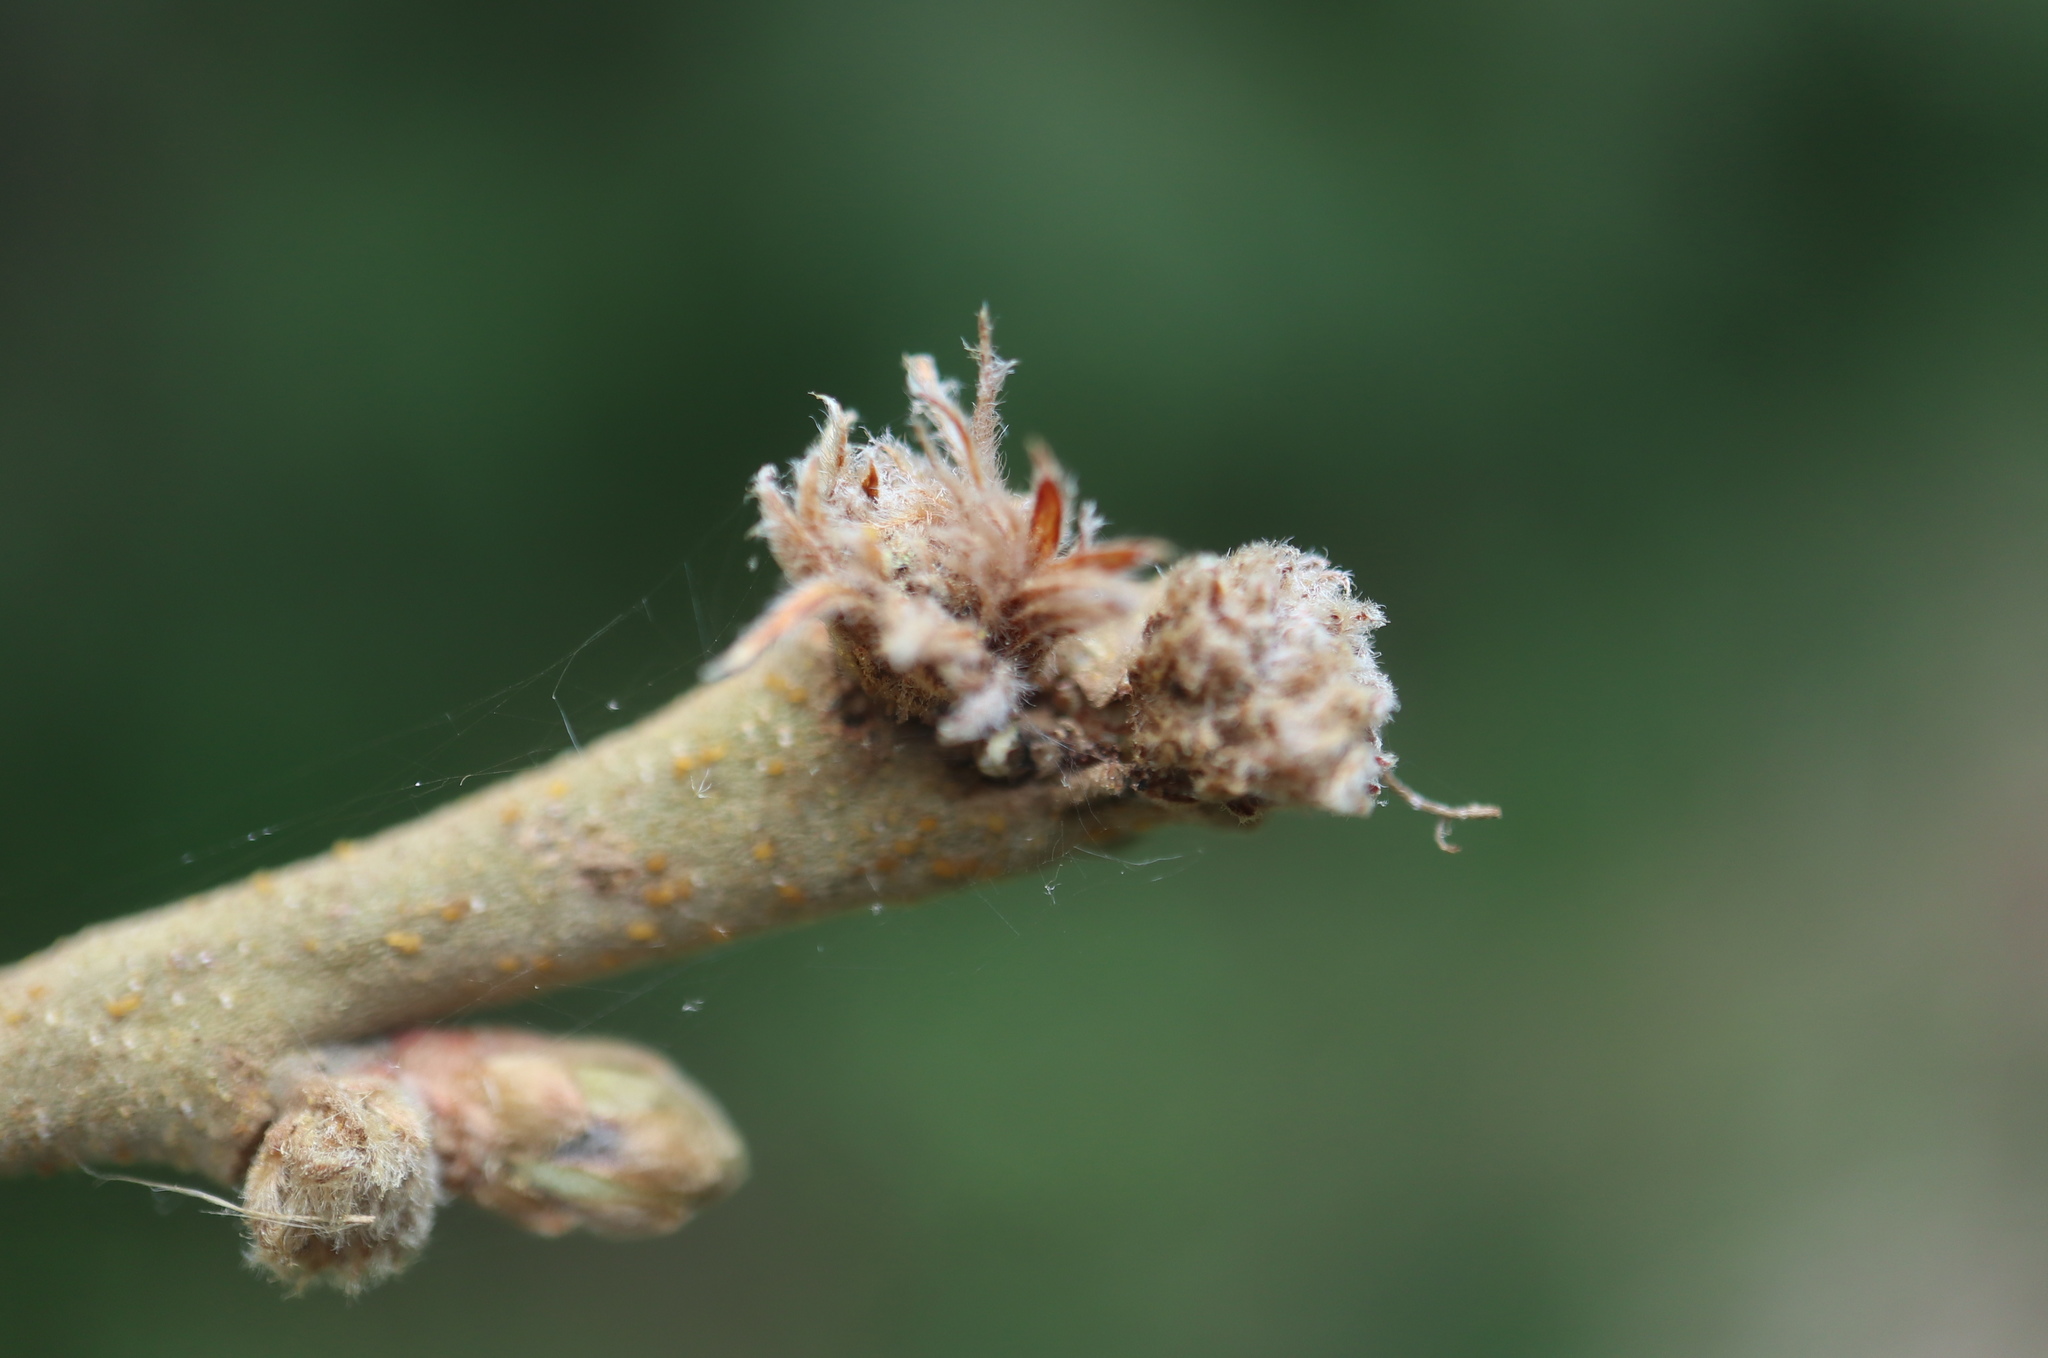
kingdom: Animalia
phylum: Arthropoda
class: Insecta
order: Hymenoptera
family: Cynipidae
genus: Andricus
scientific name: Andricus
